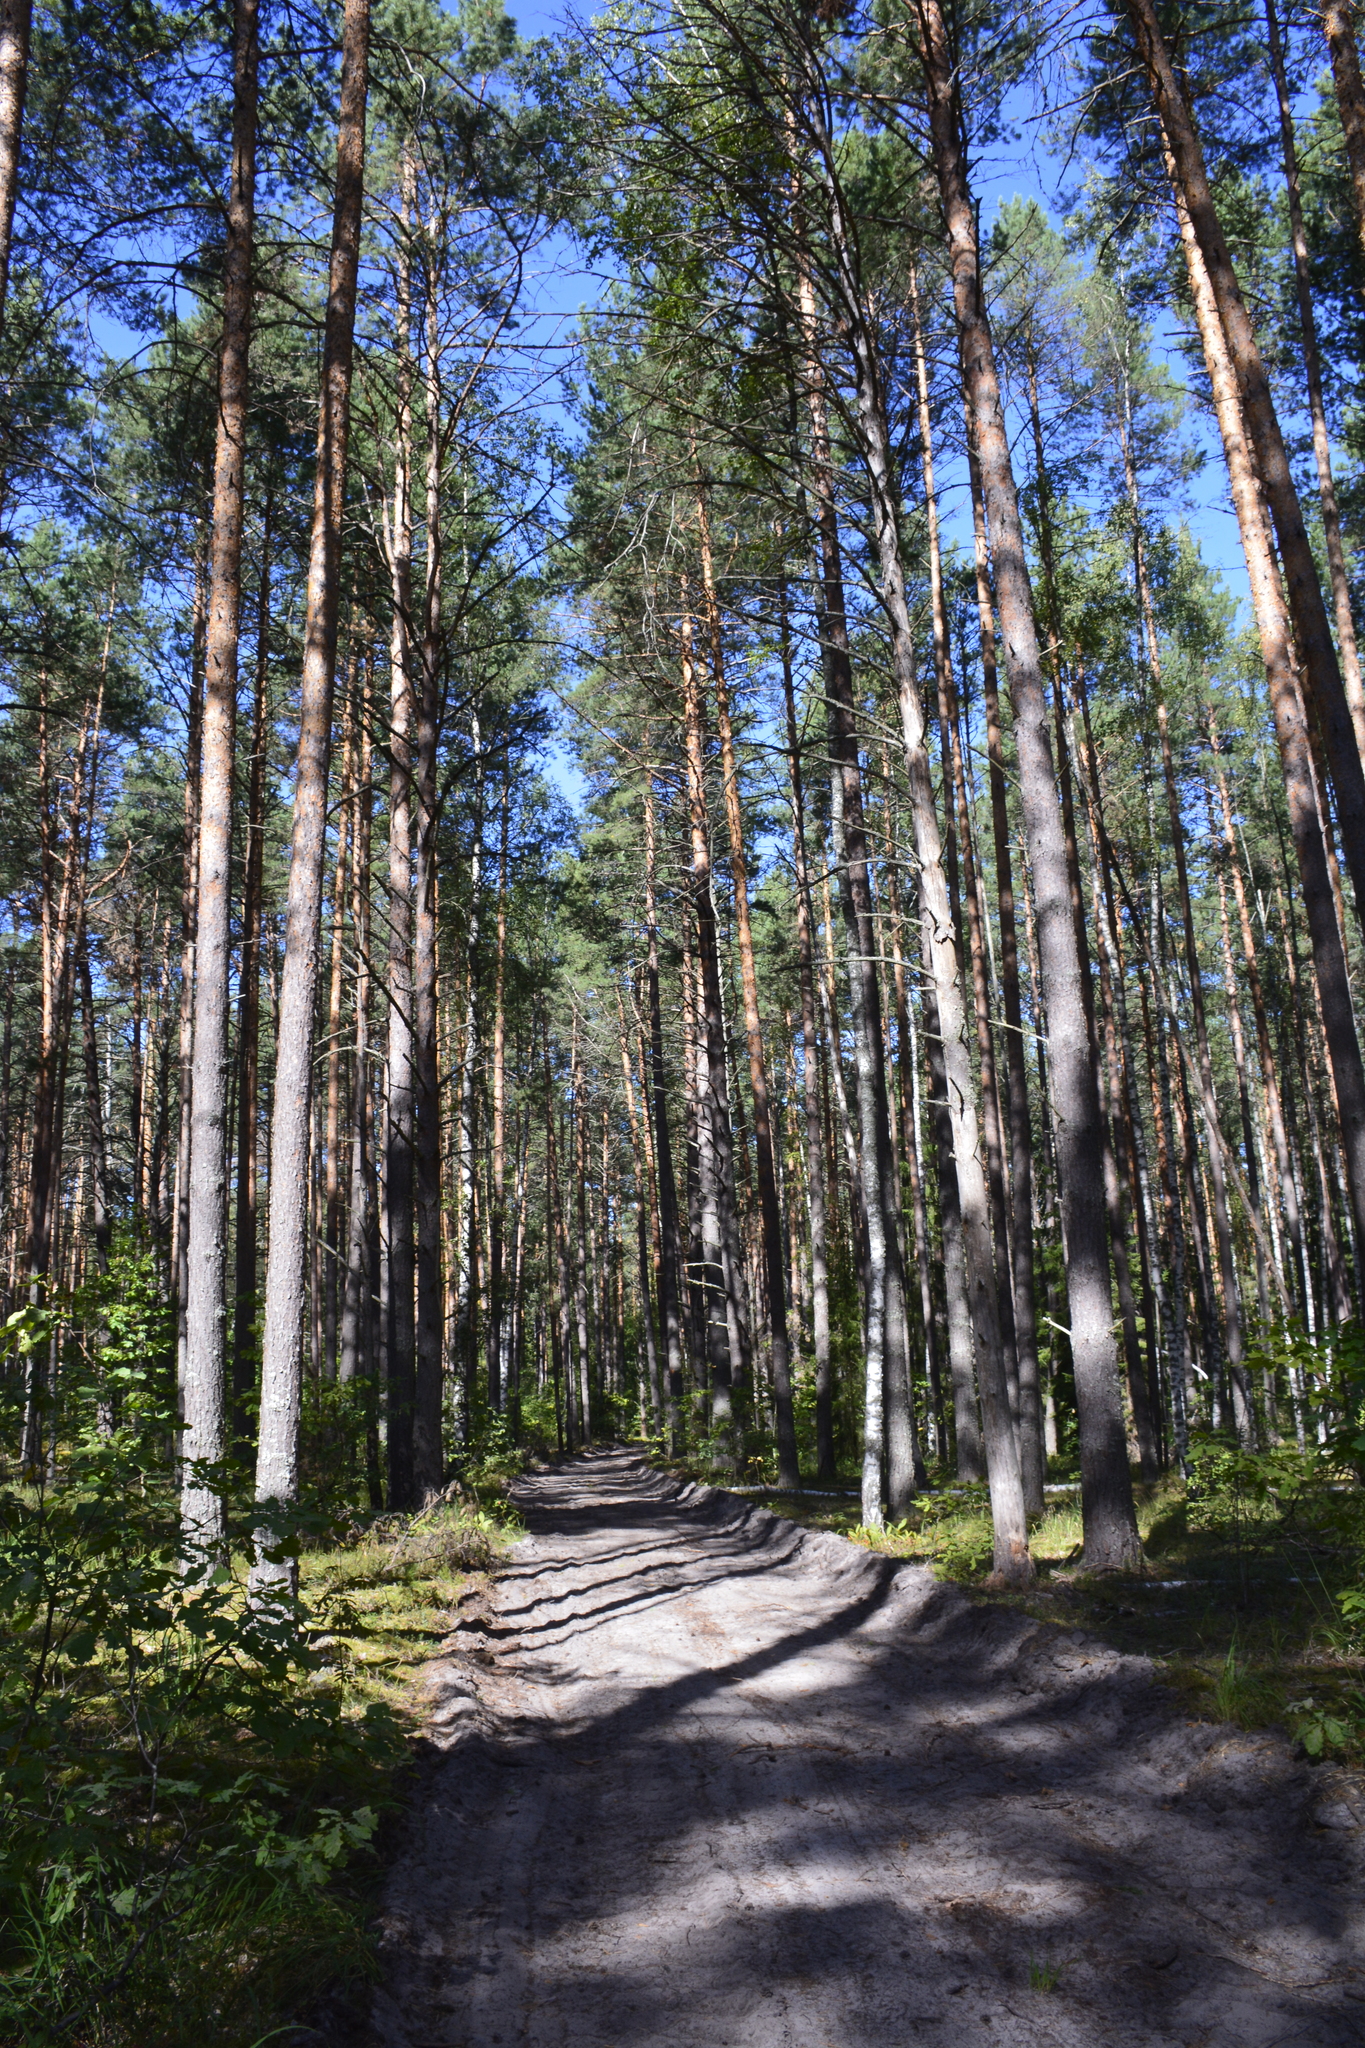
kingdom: Plantae
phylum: Tracheophyta
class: Pinopsida
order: Pinales
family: Pinaceae
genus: Pinus
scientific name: Pinus sylvestris
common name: Scots pine
